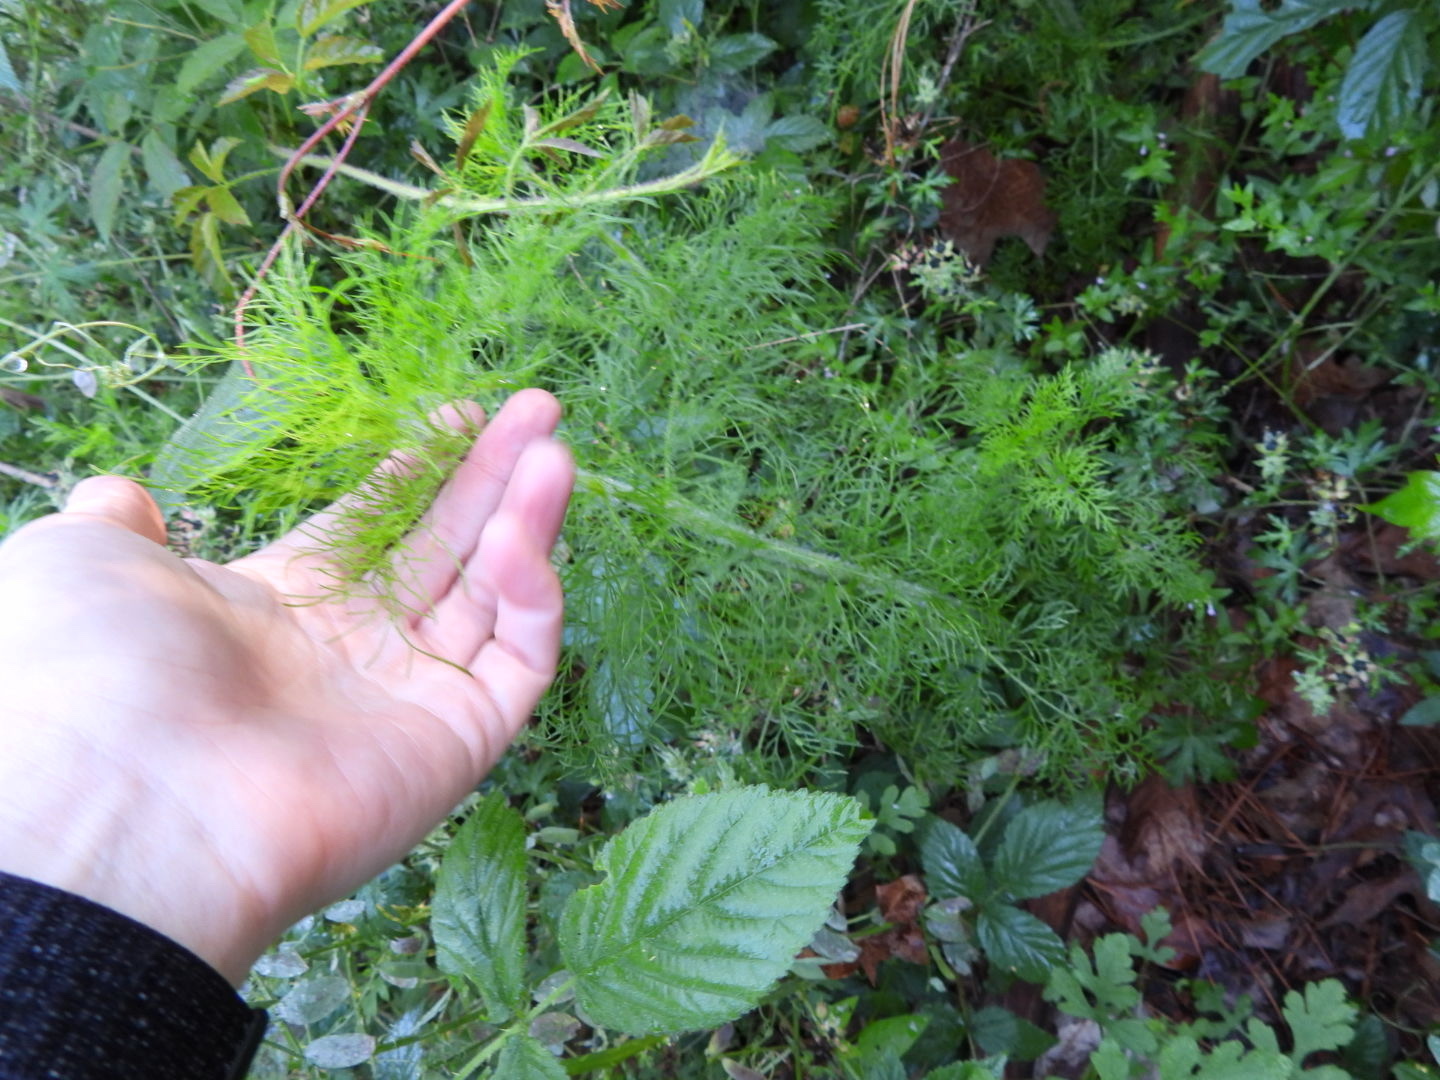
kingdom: Plantae
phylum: Tracheophyta
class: Magnoliopsida
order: Asterales
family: Asteraceae
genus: Eupatorium
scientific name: Eupatorium capillifolium
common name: Dog-fennel
